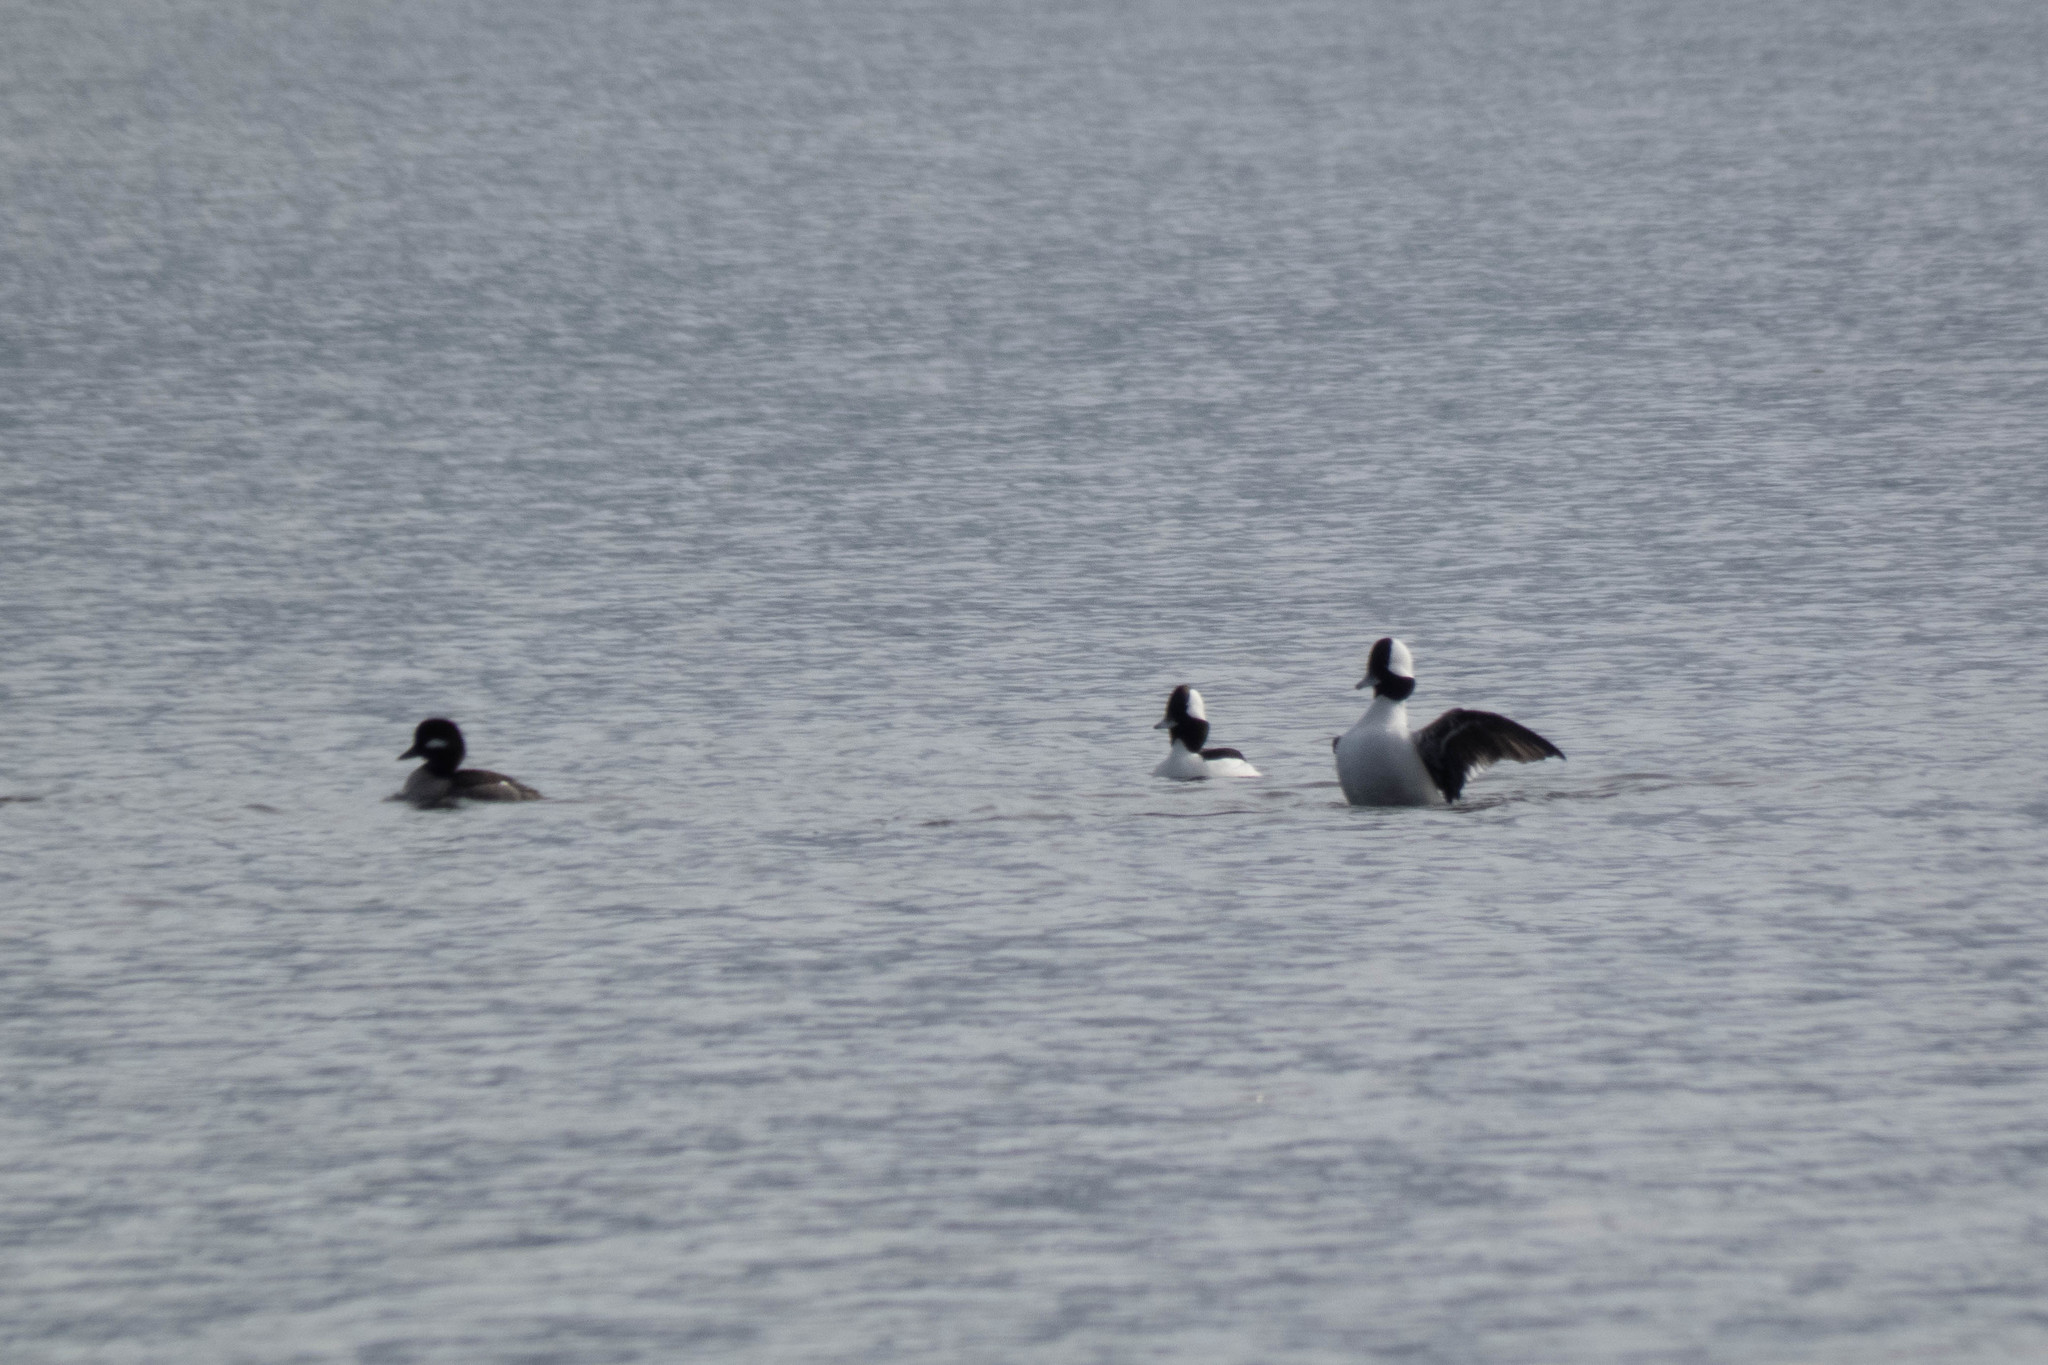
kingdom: Animalia
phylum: Chordata
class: Aves
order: Anseriformes
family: Anatidae
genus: Bucephala
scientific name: Bucephala albeola
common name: Bufflehead
